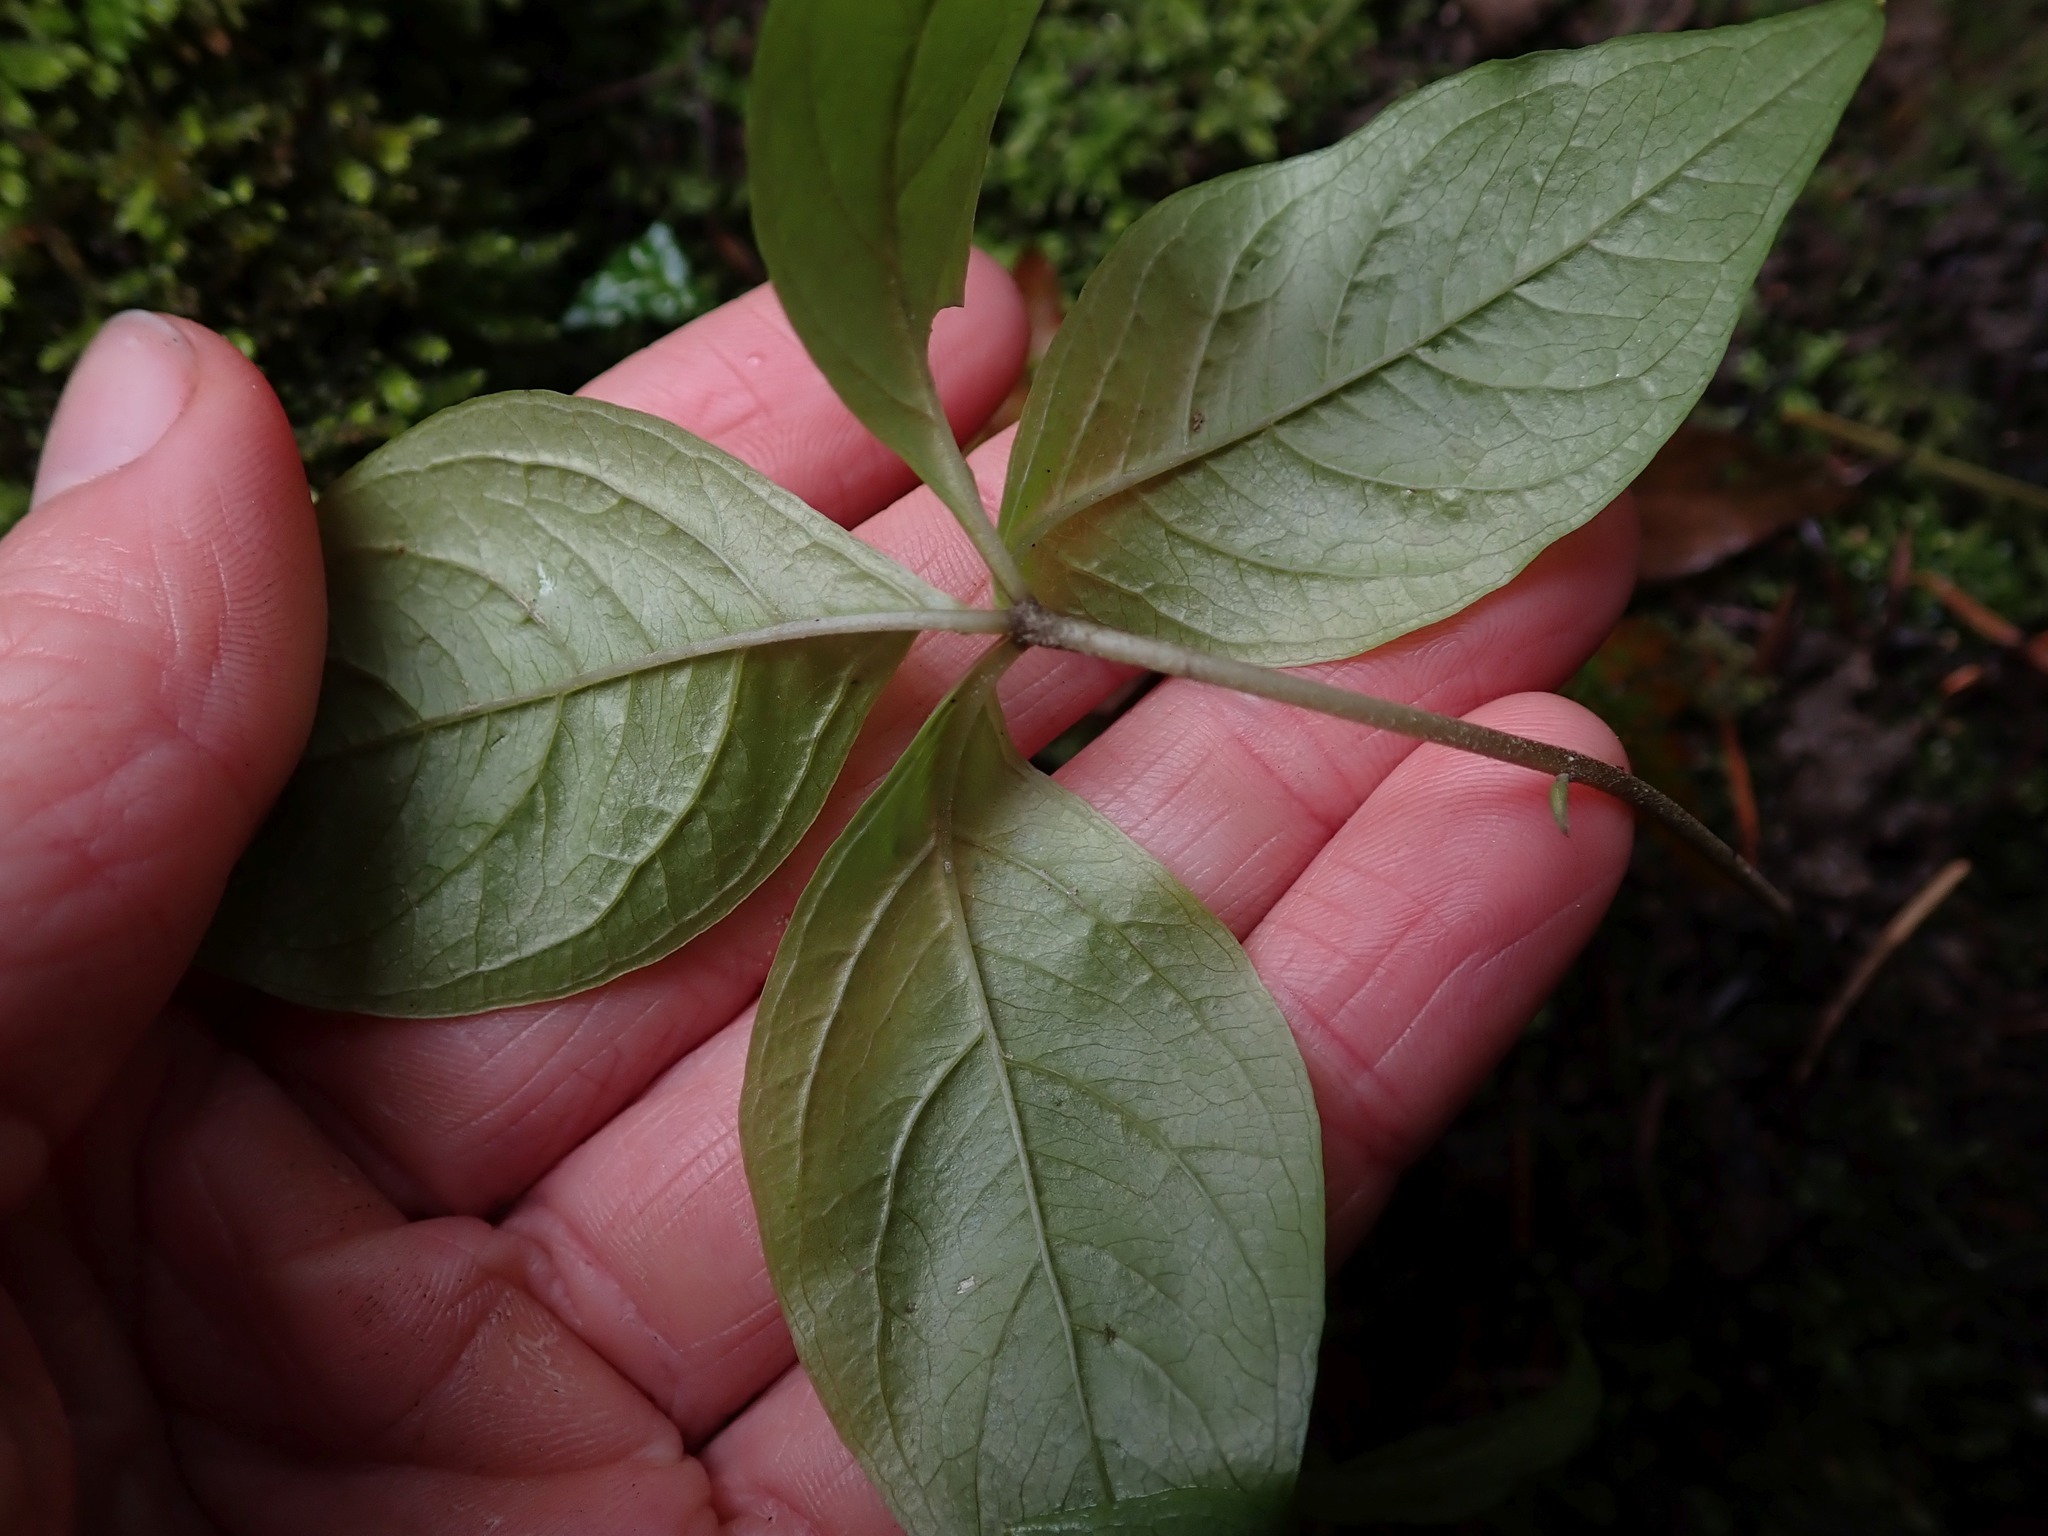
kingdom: Plantae
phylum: Tracheophyta
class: Magnoliopsida
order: Ericales
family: Primulaceae
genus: Lysimachia
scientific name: Lysimachia latifolia
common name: Pacific starflower
